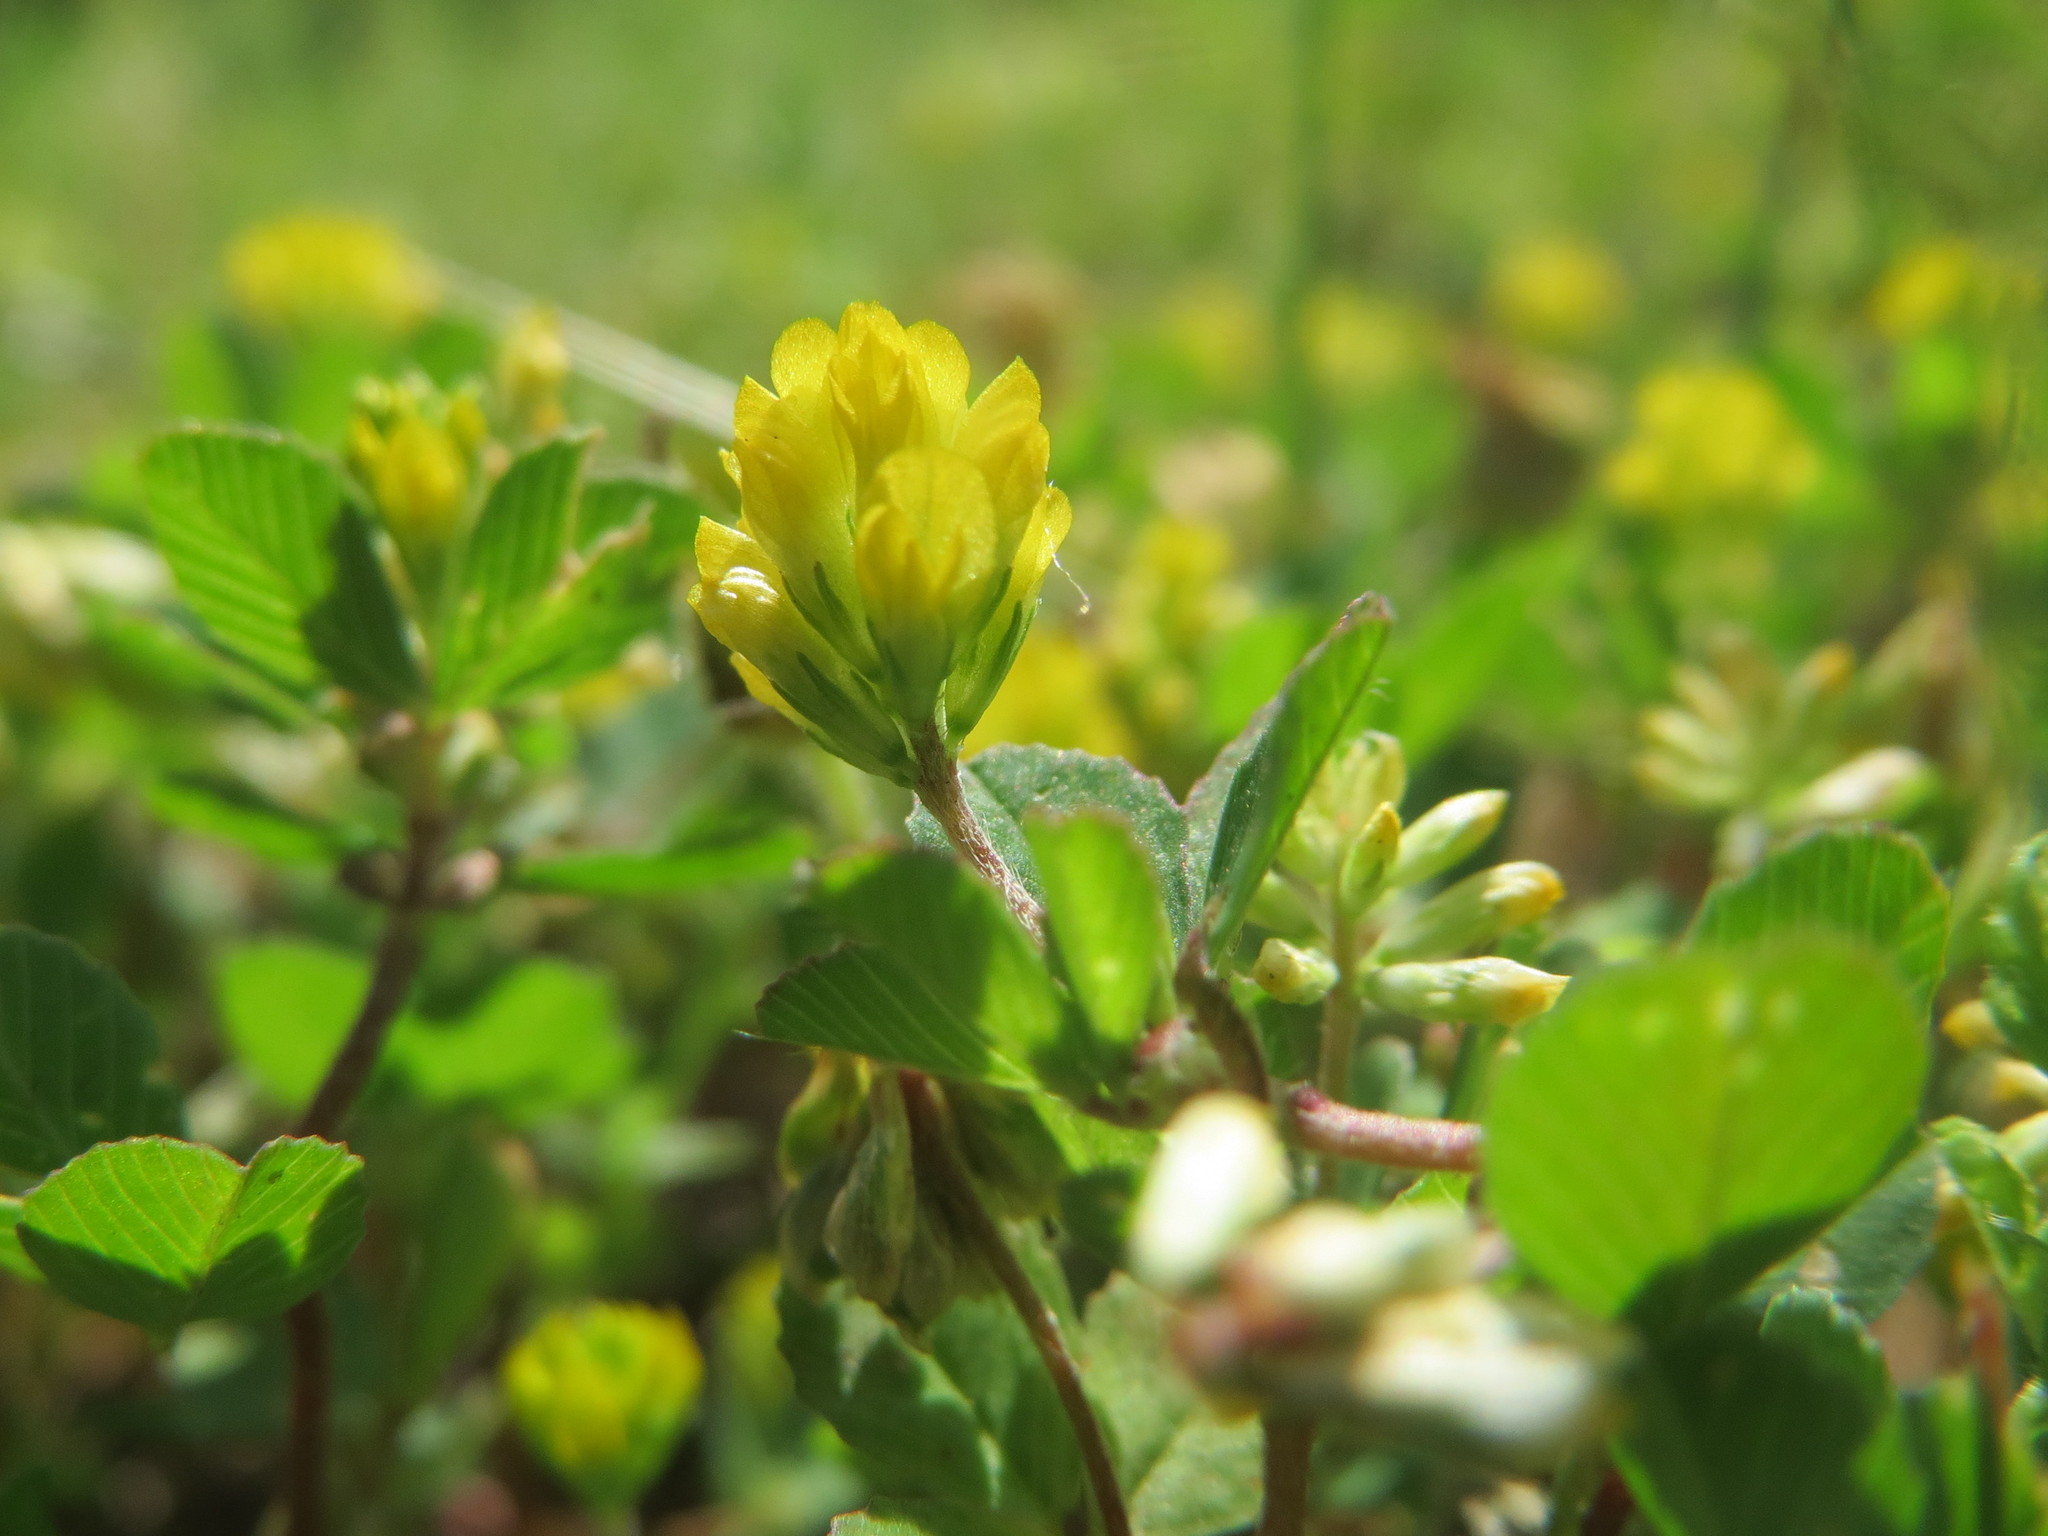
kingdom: Plantae
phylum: Tracheophyta
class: Magnoliopsida
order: Fabales
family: Fabaceae
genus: Trifolium
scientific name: Trifolium dubium
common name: Suckling clover
